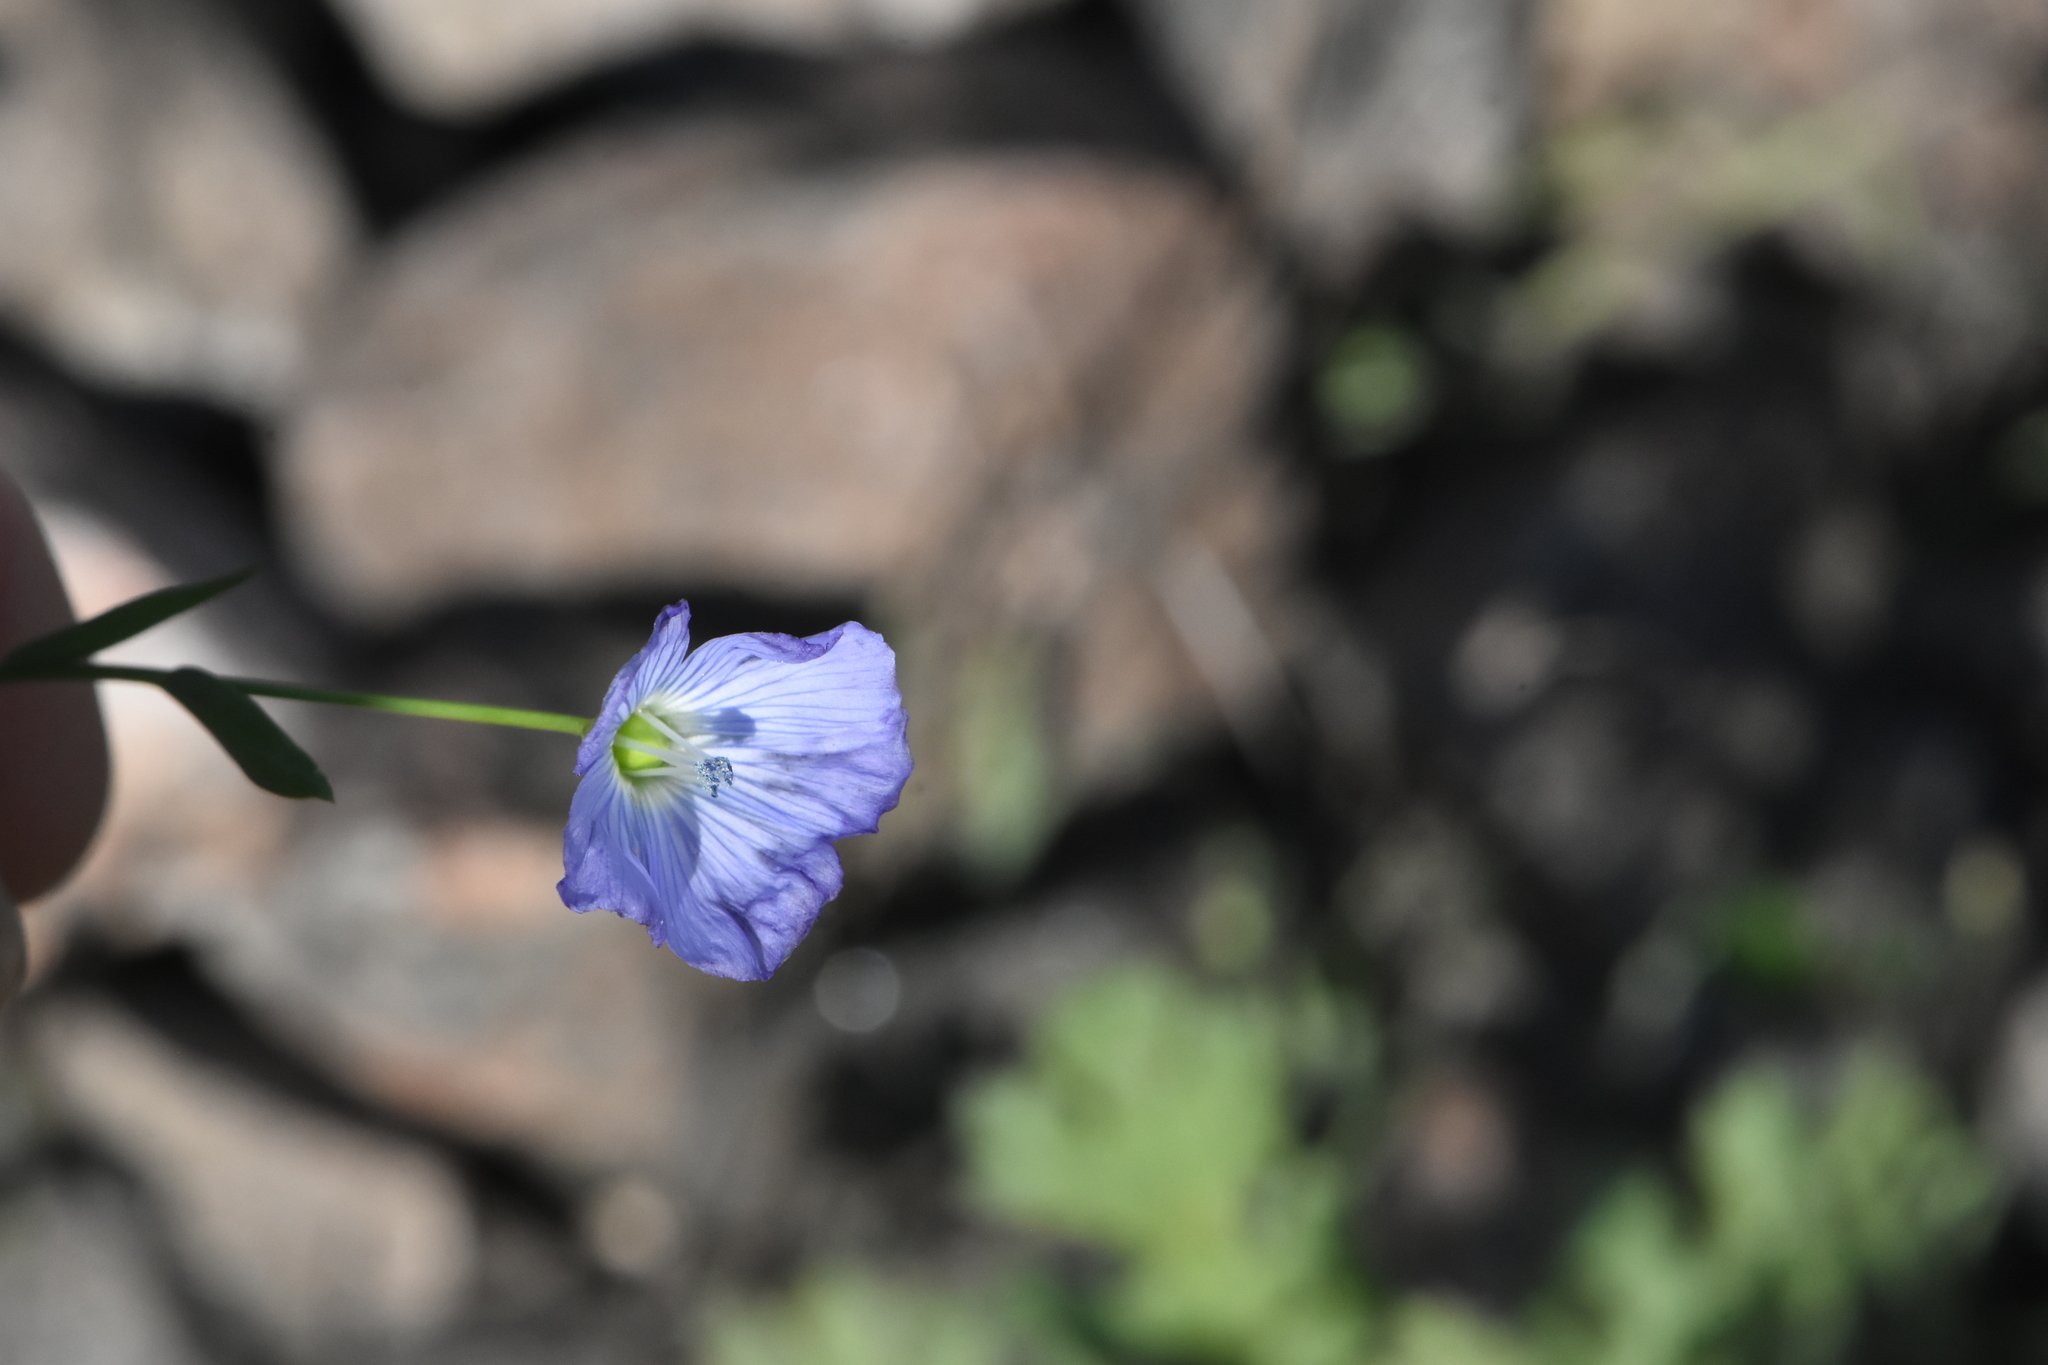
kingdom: Plantae
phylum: Tracheophyta
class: Magnoliopsida
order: Malpighiales
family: Linaceae
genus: Linum
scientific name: Linum usitatissimum
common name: Flax
